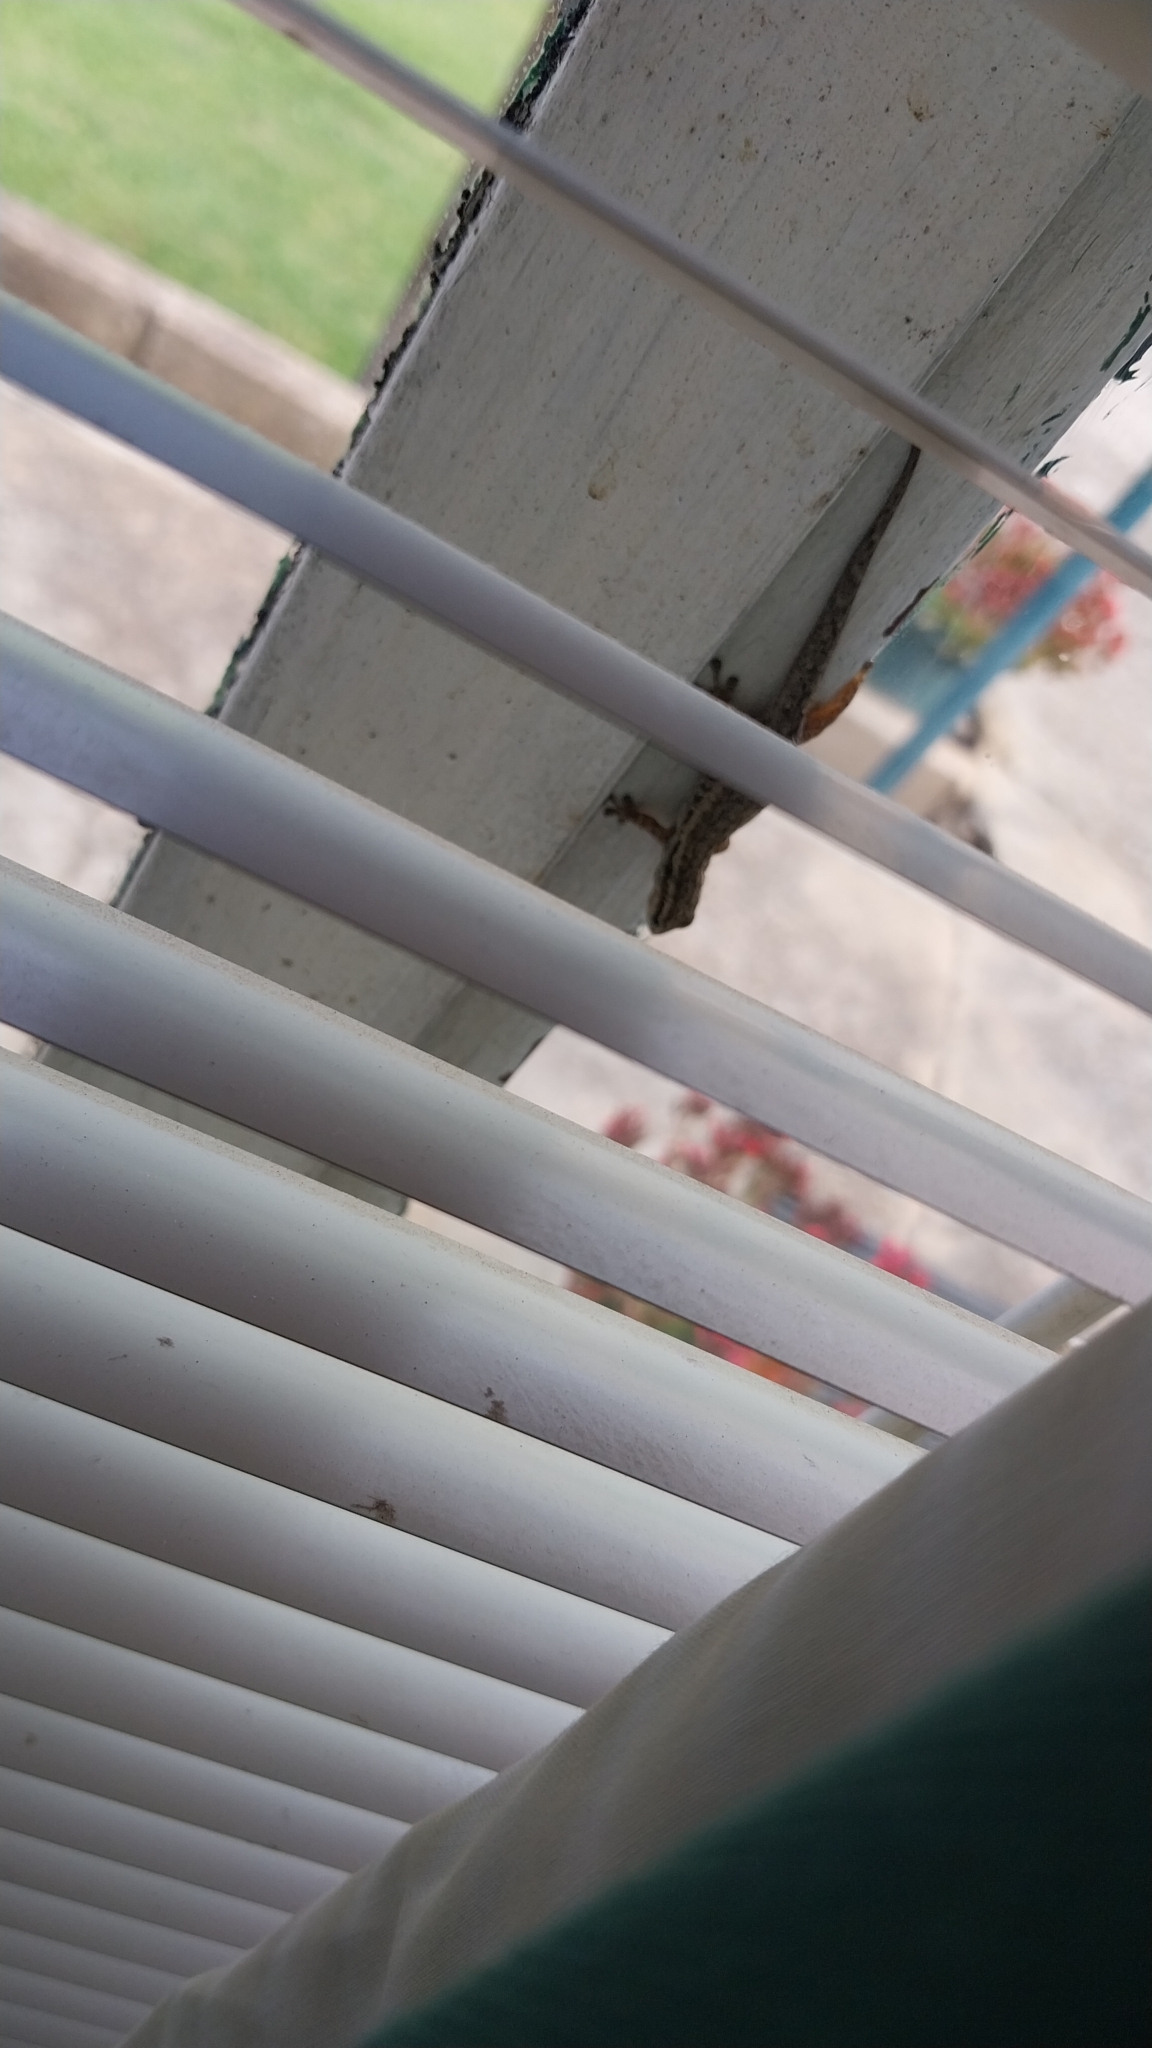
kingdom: Animalia
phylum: Chordata
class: Squamata
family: Gekkonidae
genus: Lygodactylus
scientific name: Lygodactylus capensis
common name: Cape dwarf gecko
